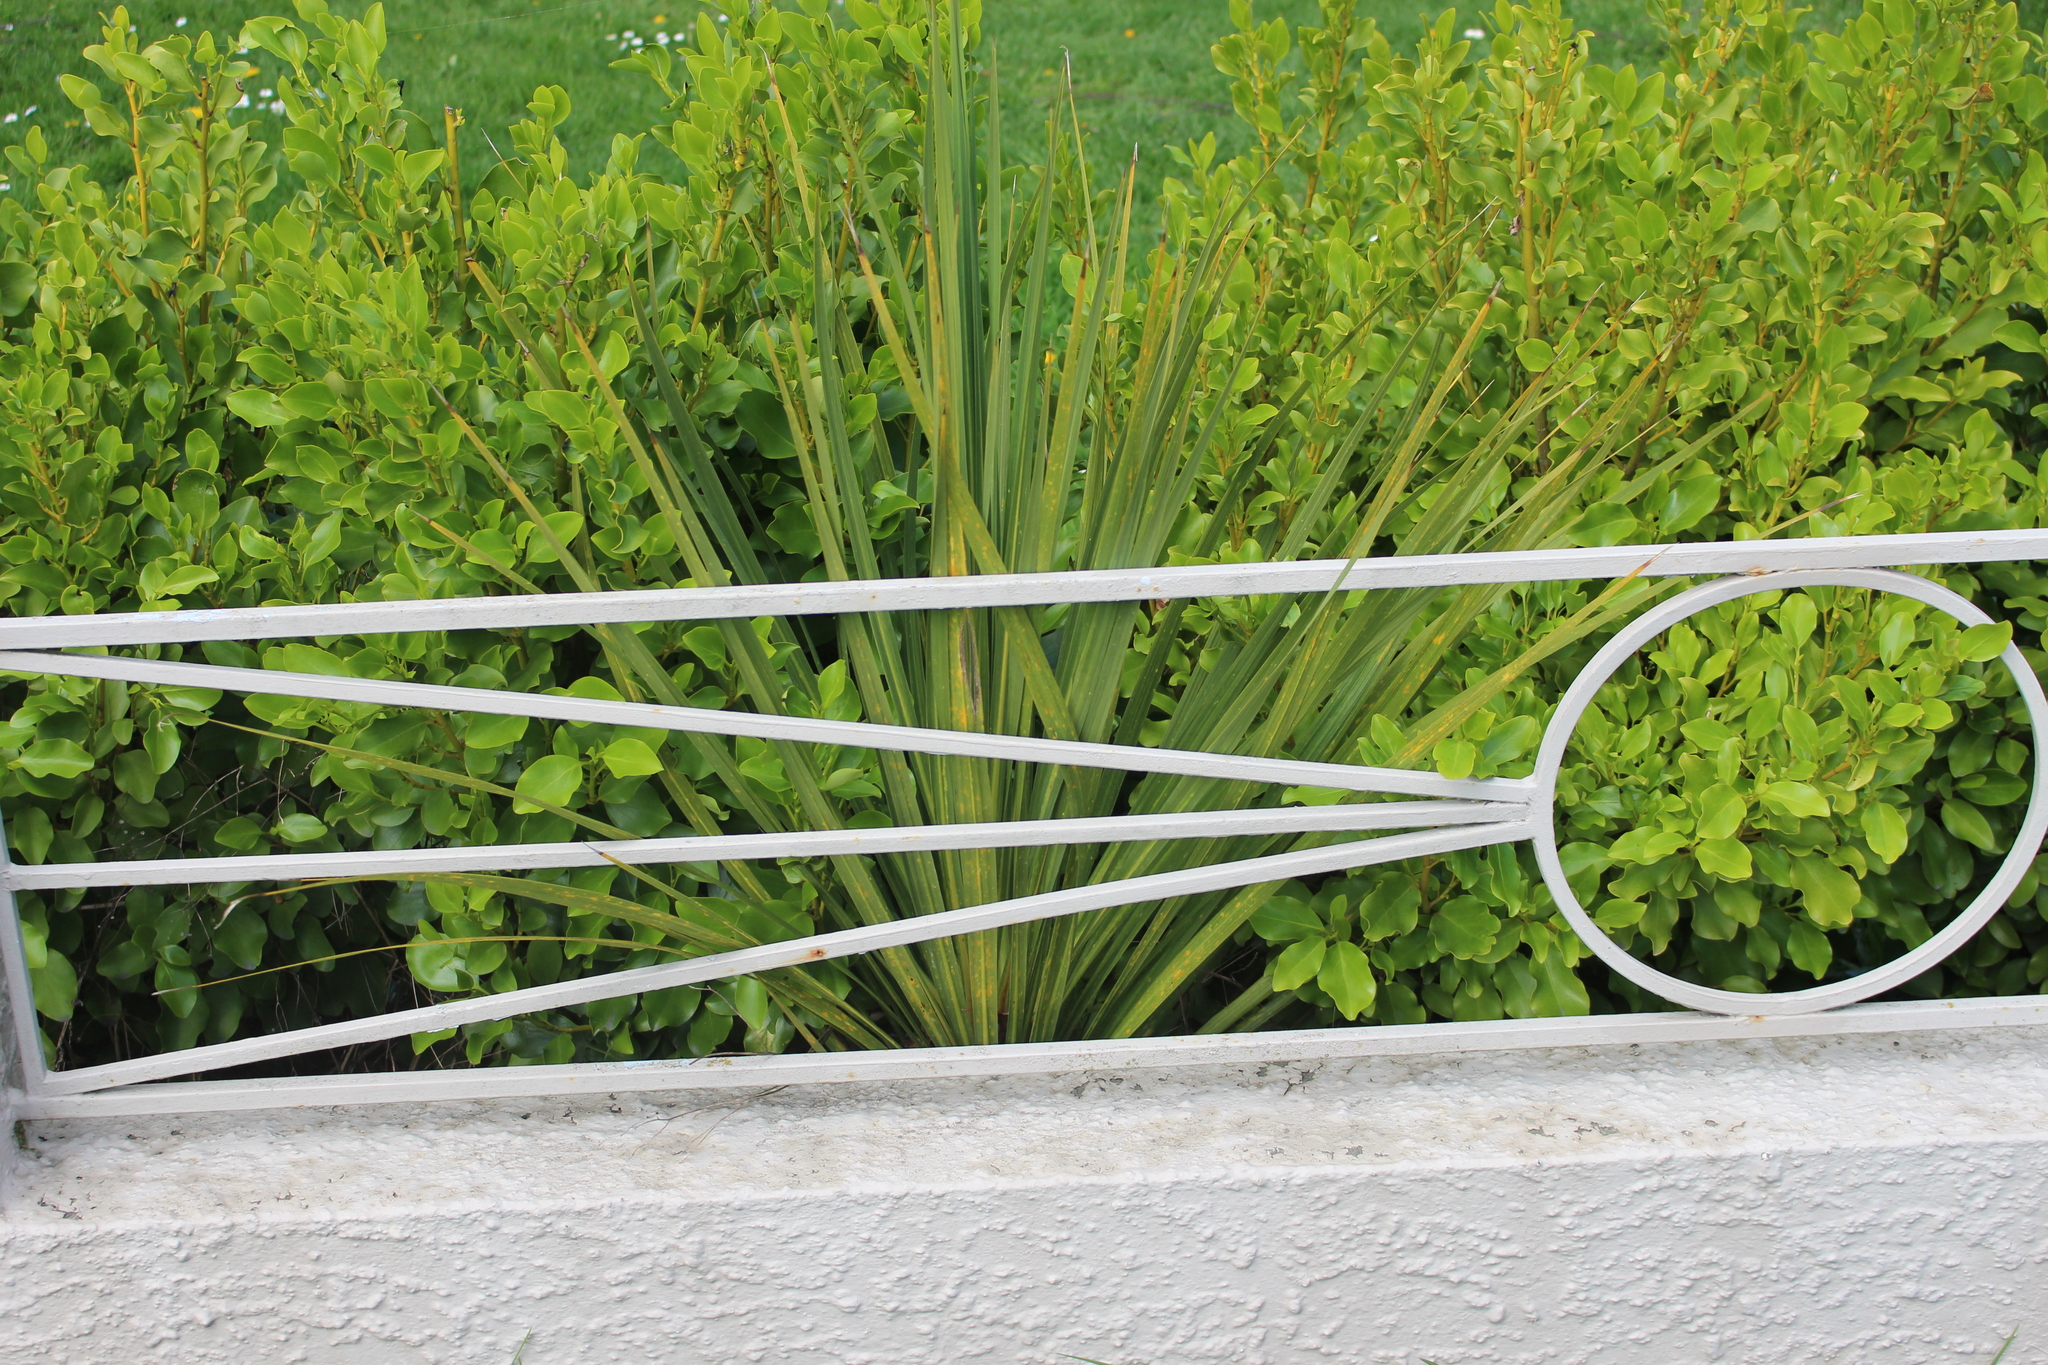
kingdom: Plantae
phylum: Tracheophyta
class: Liliopsida
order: Asparagales
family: Asparagaceae
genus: Cordyline
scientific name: Cordyline australis
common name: Cabbage-palm
